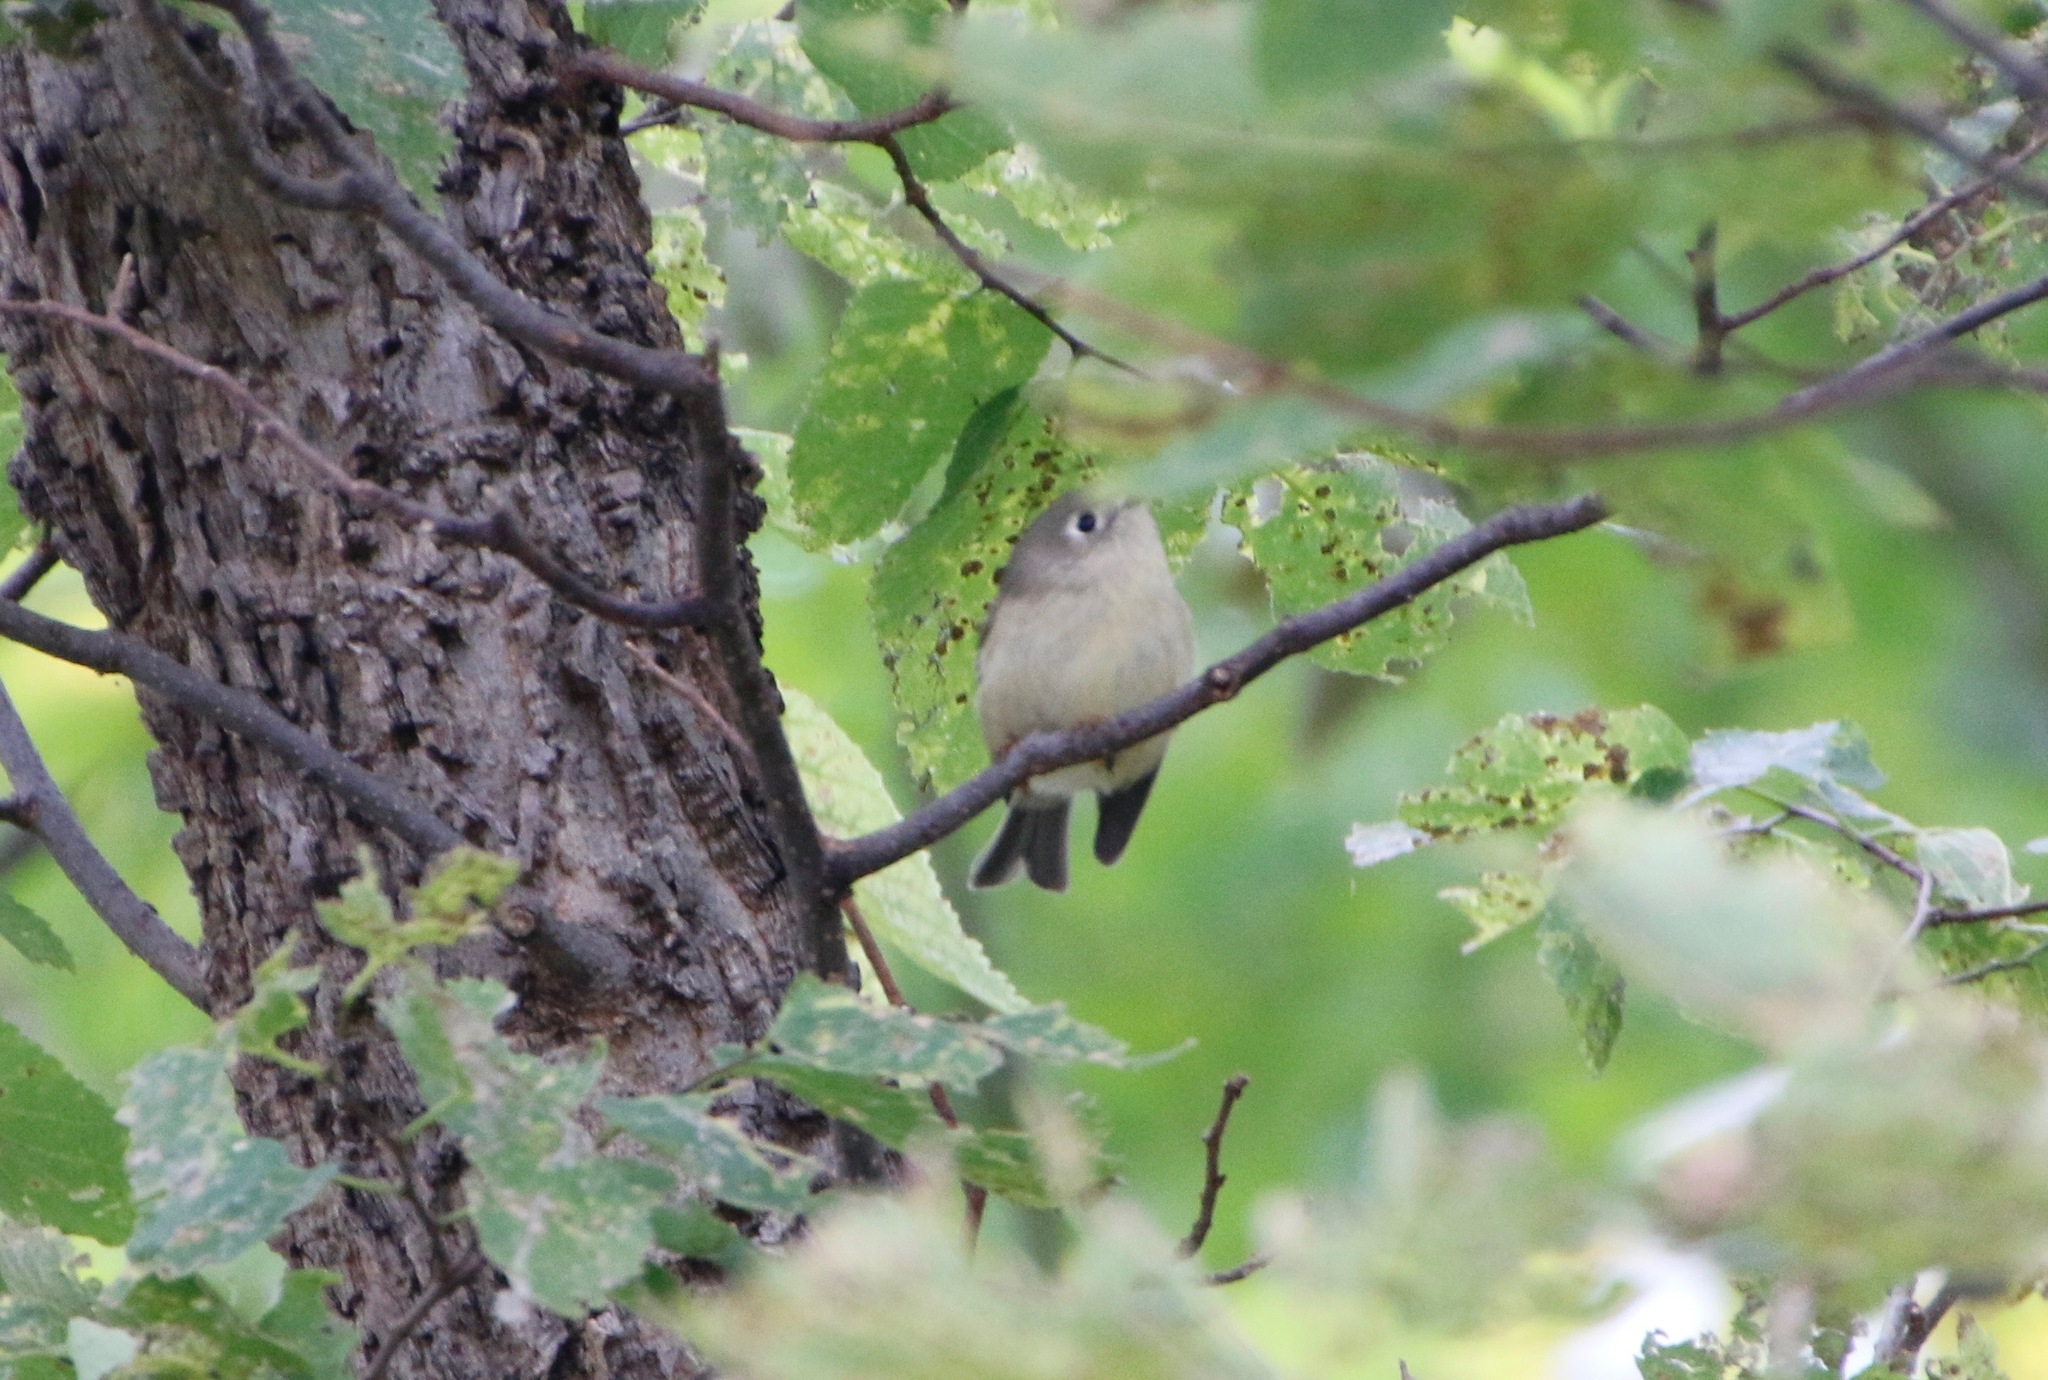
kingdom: Animalia
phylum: Chordata
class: Aves
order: Passeriformes
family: Regulidae
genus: Regulus
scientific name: Regulus calendula
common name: Ruby-crowned kinglet
